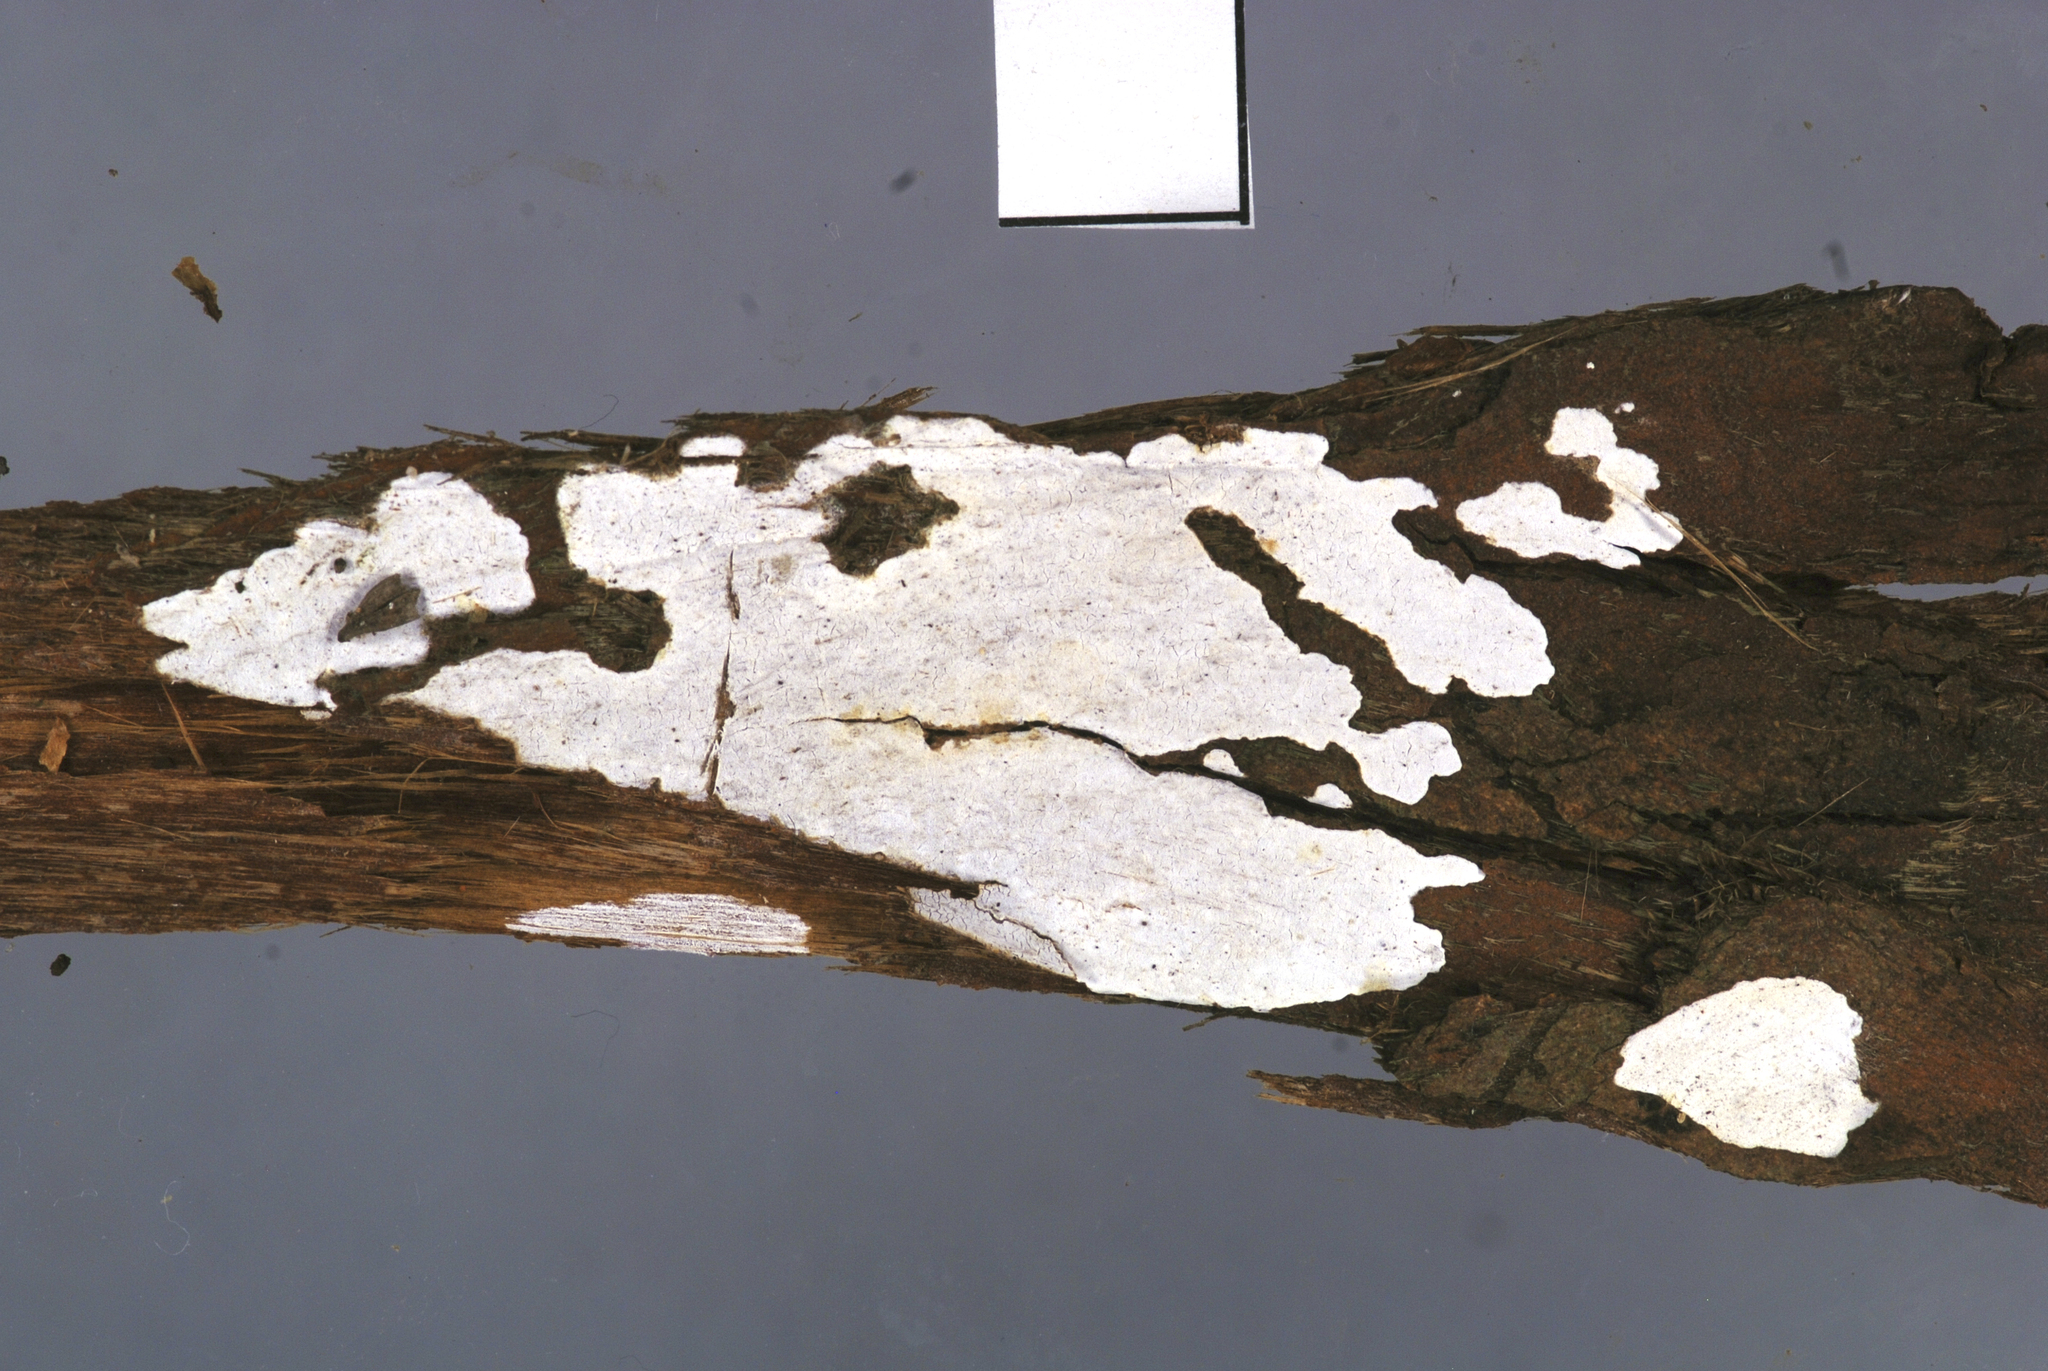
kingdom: Fungi
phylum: Basidiomycota
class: Agaricomycetes
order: Agaricales
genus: Dendrothele
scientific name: Dendrothele nivosa
